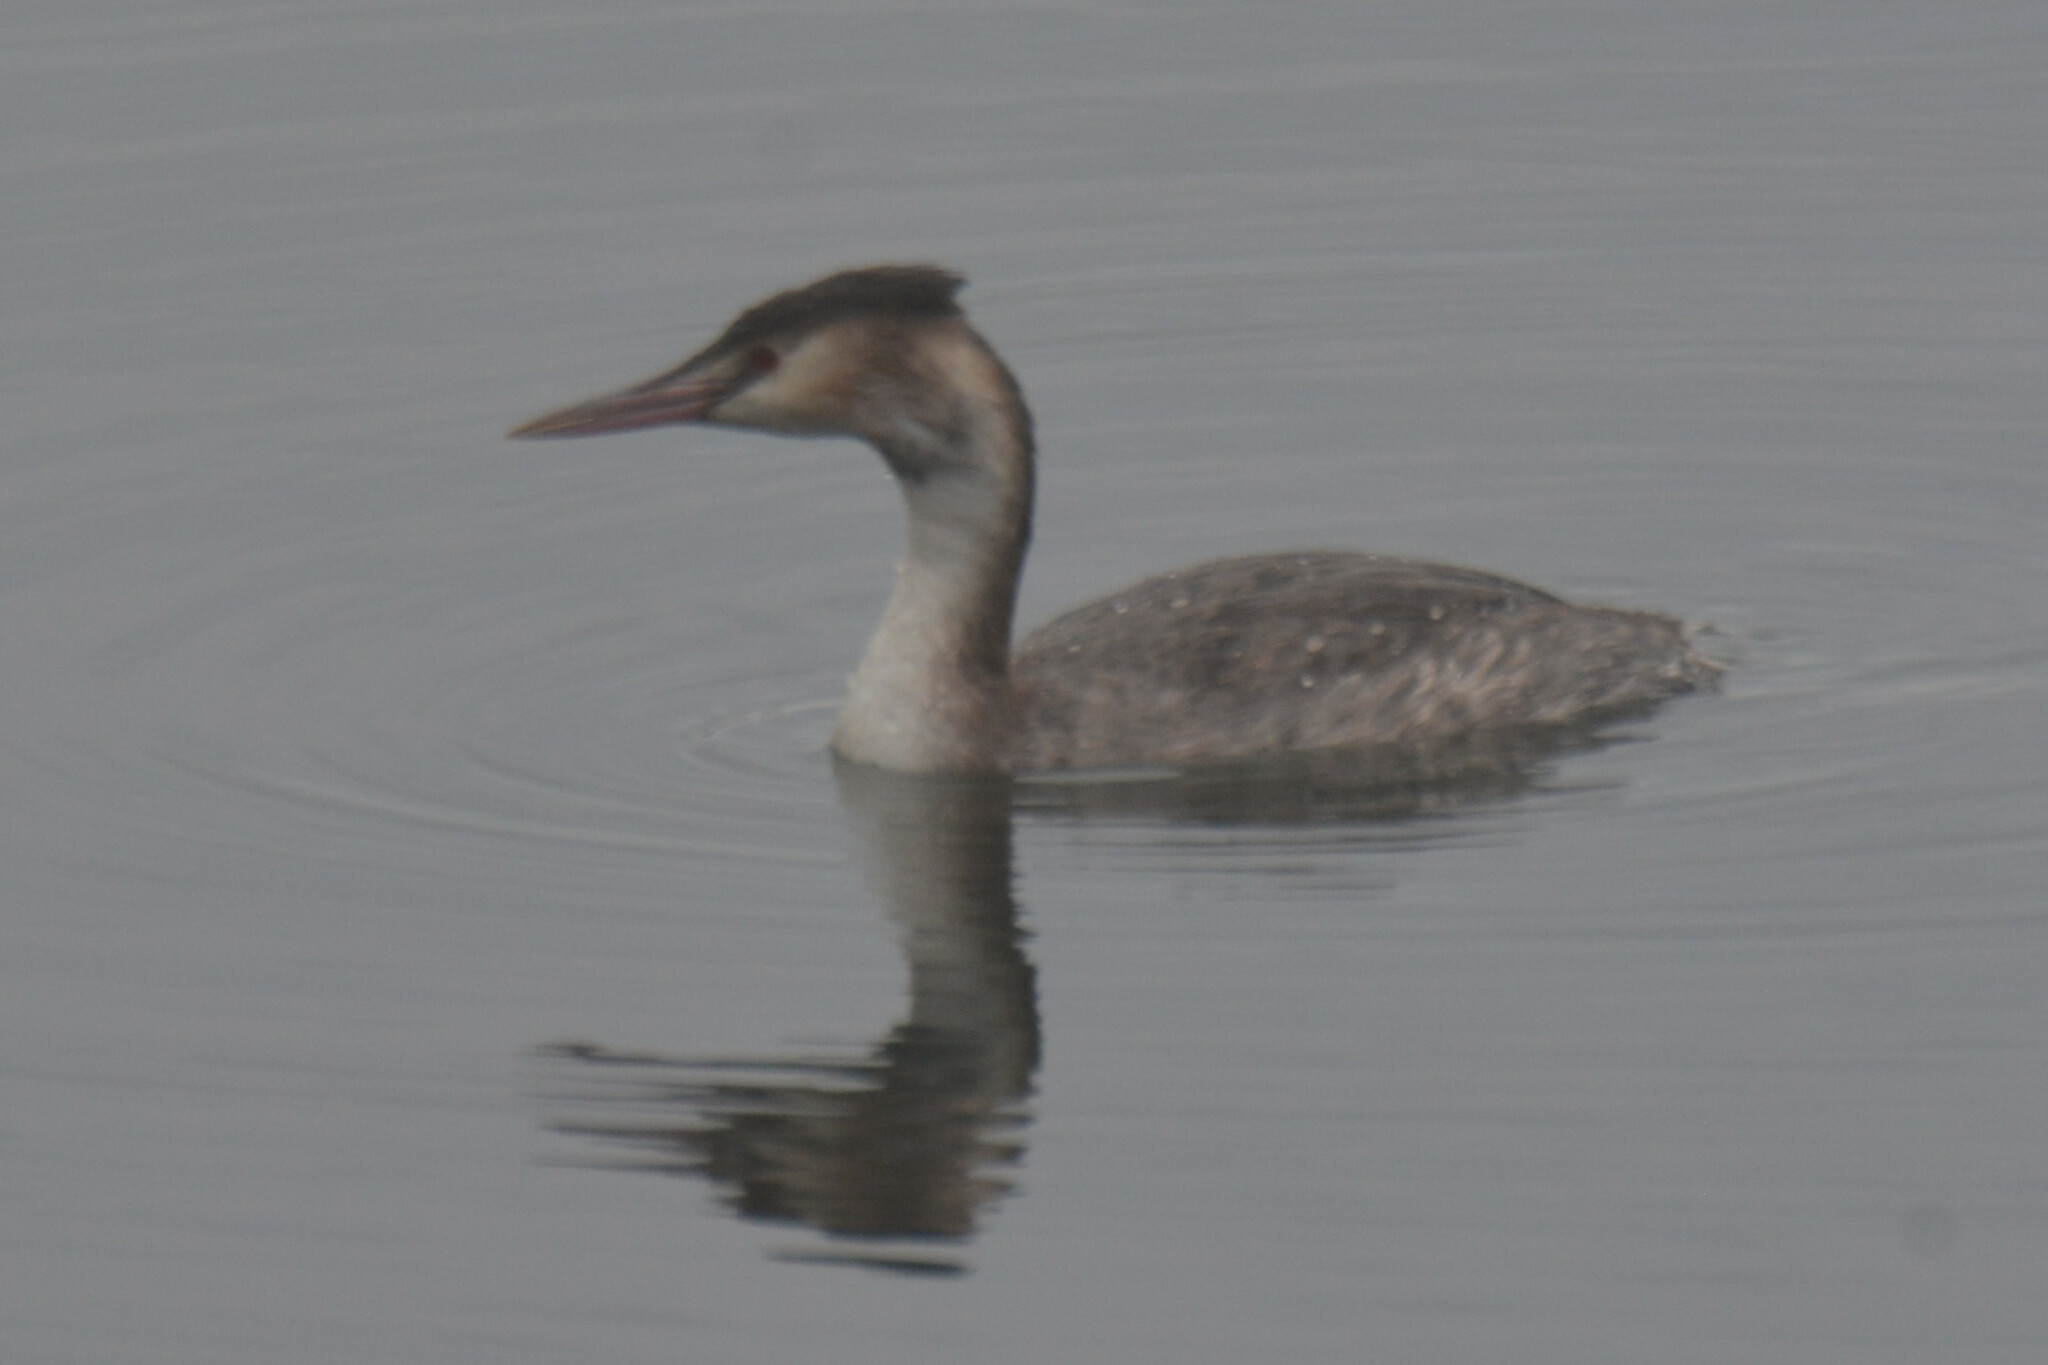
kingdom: Animalia
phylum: Chordata
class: Aves
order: Podicipediformes
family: Podicipedidae
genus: Podiceps
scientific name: Podiceps cristatus
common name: Great crested grebe
